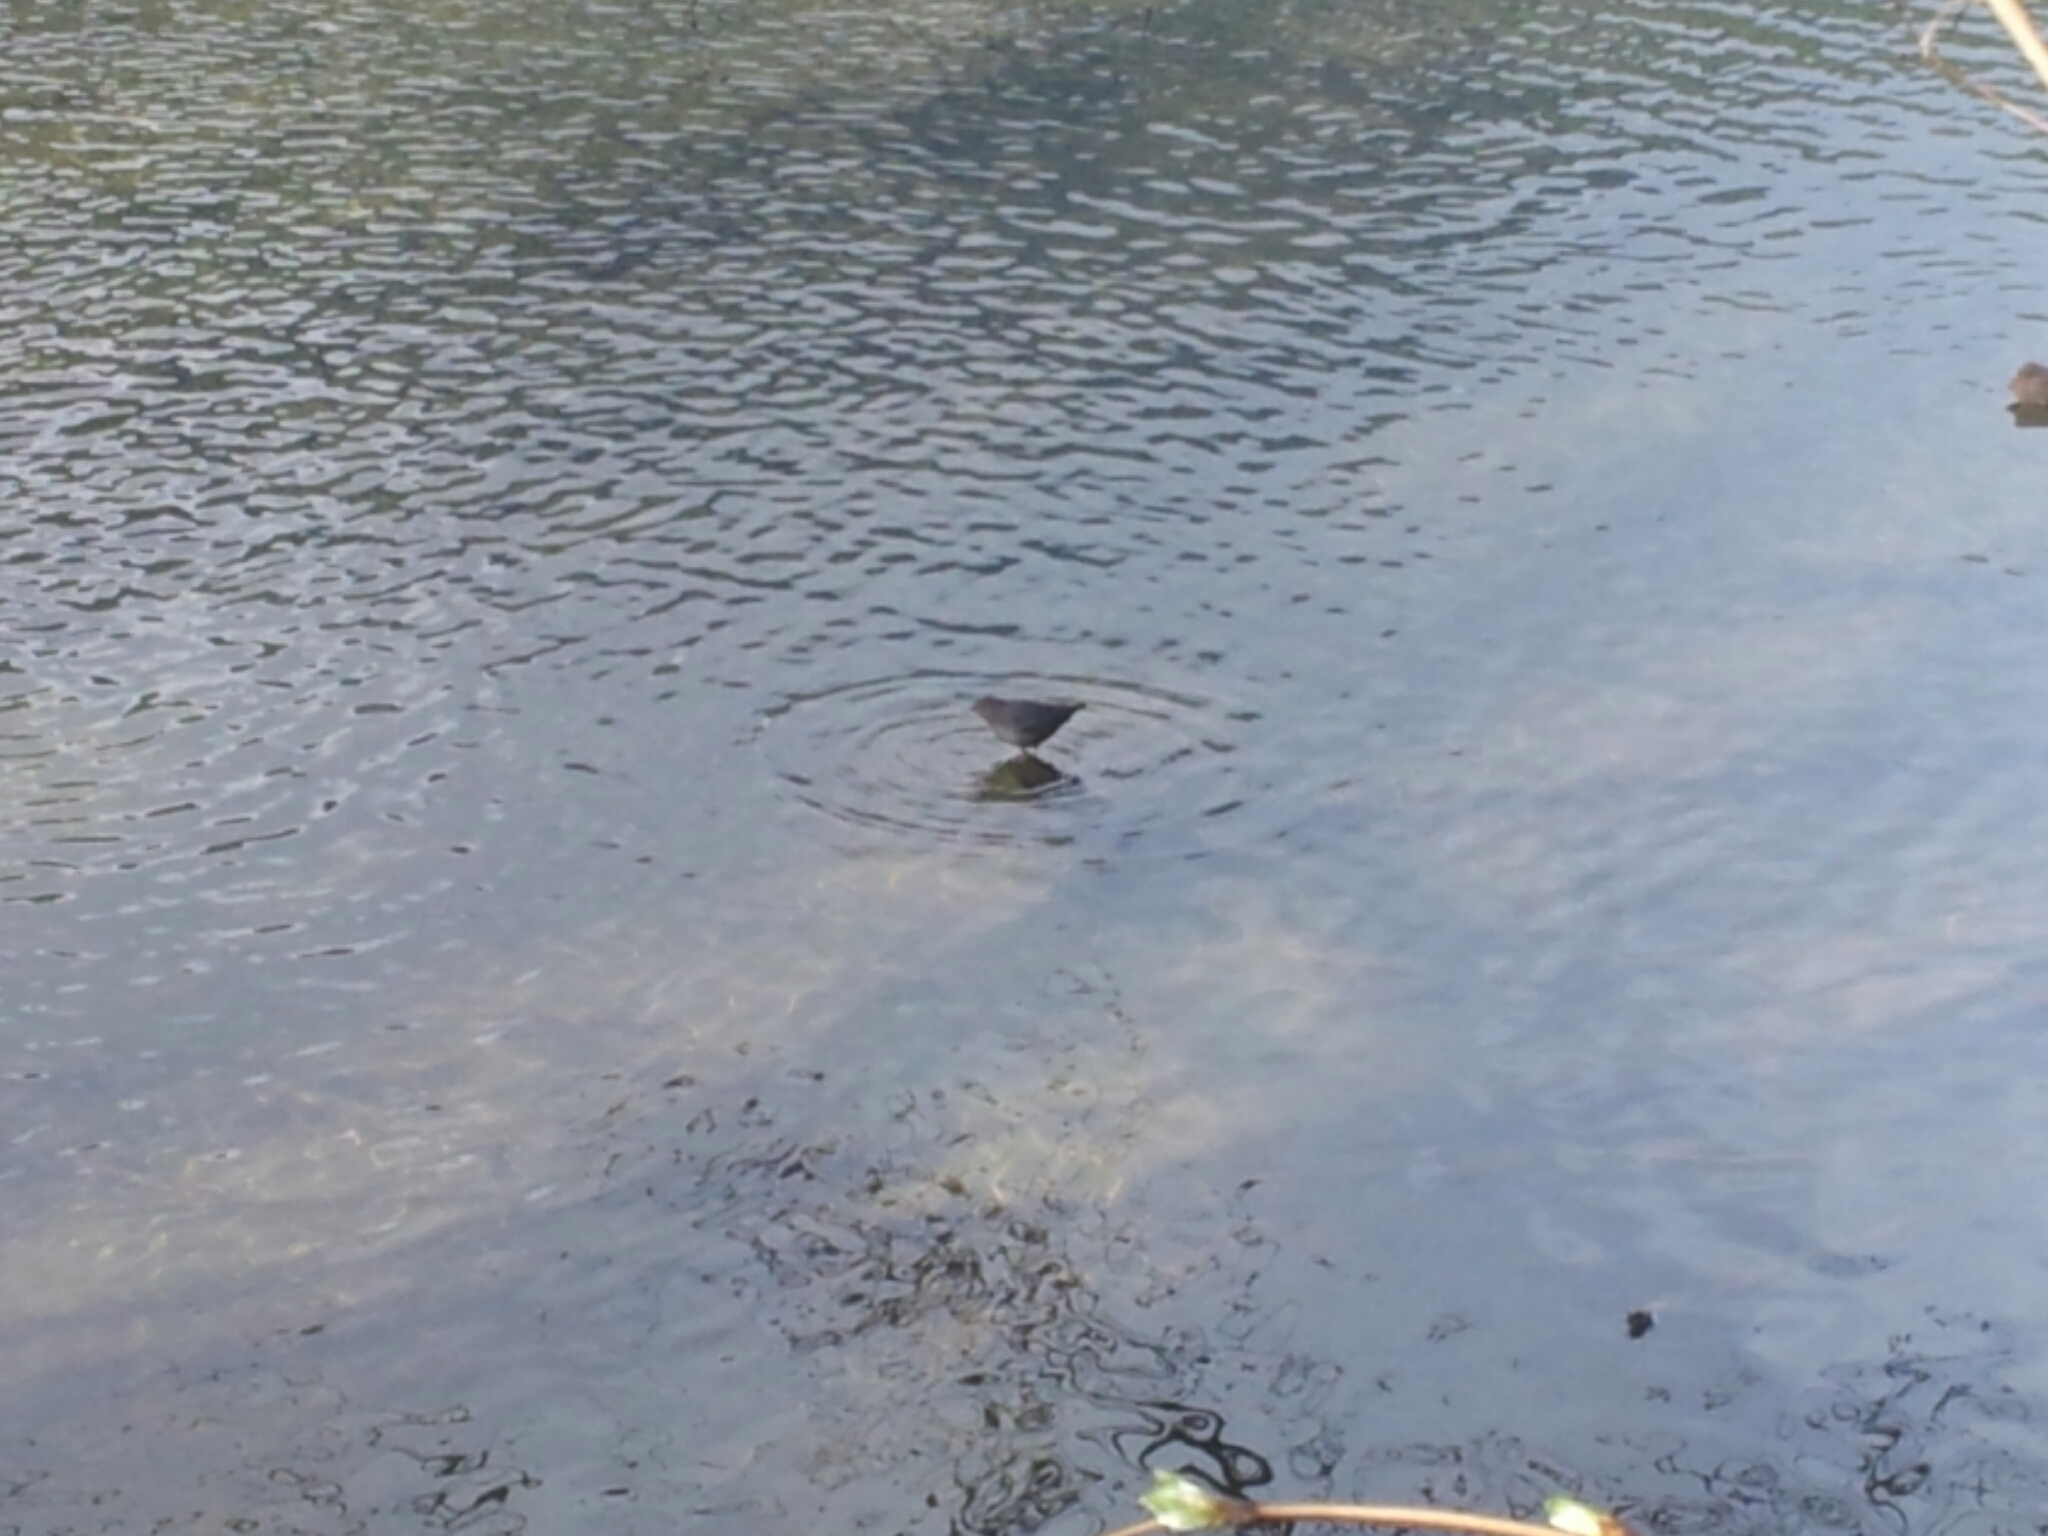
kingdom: Animalia
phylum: Chordata
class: Aves
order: Passeriformes
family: Cinclidae
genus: Cinclus
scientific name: Cinclus mexicanus
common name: American dipper
